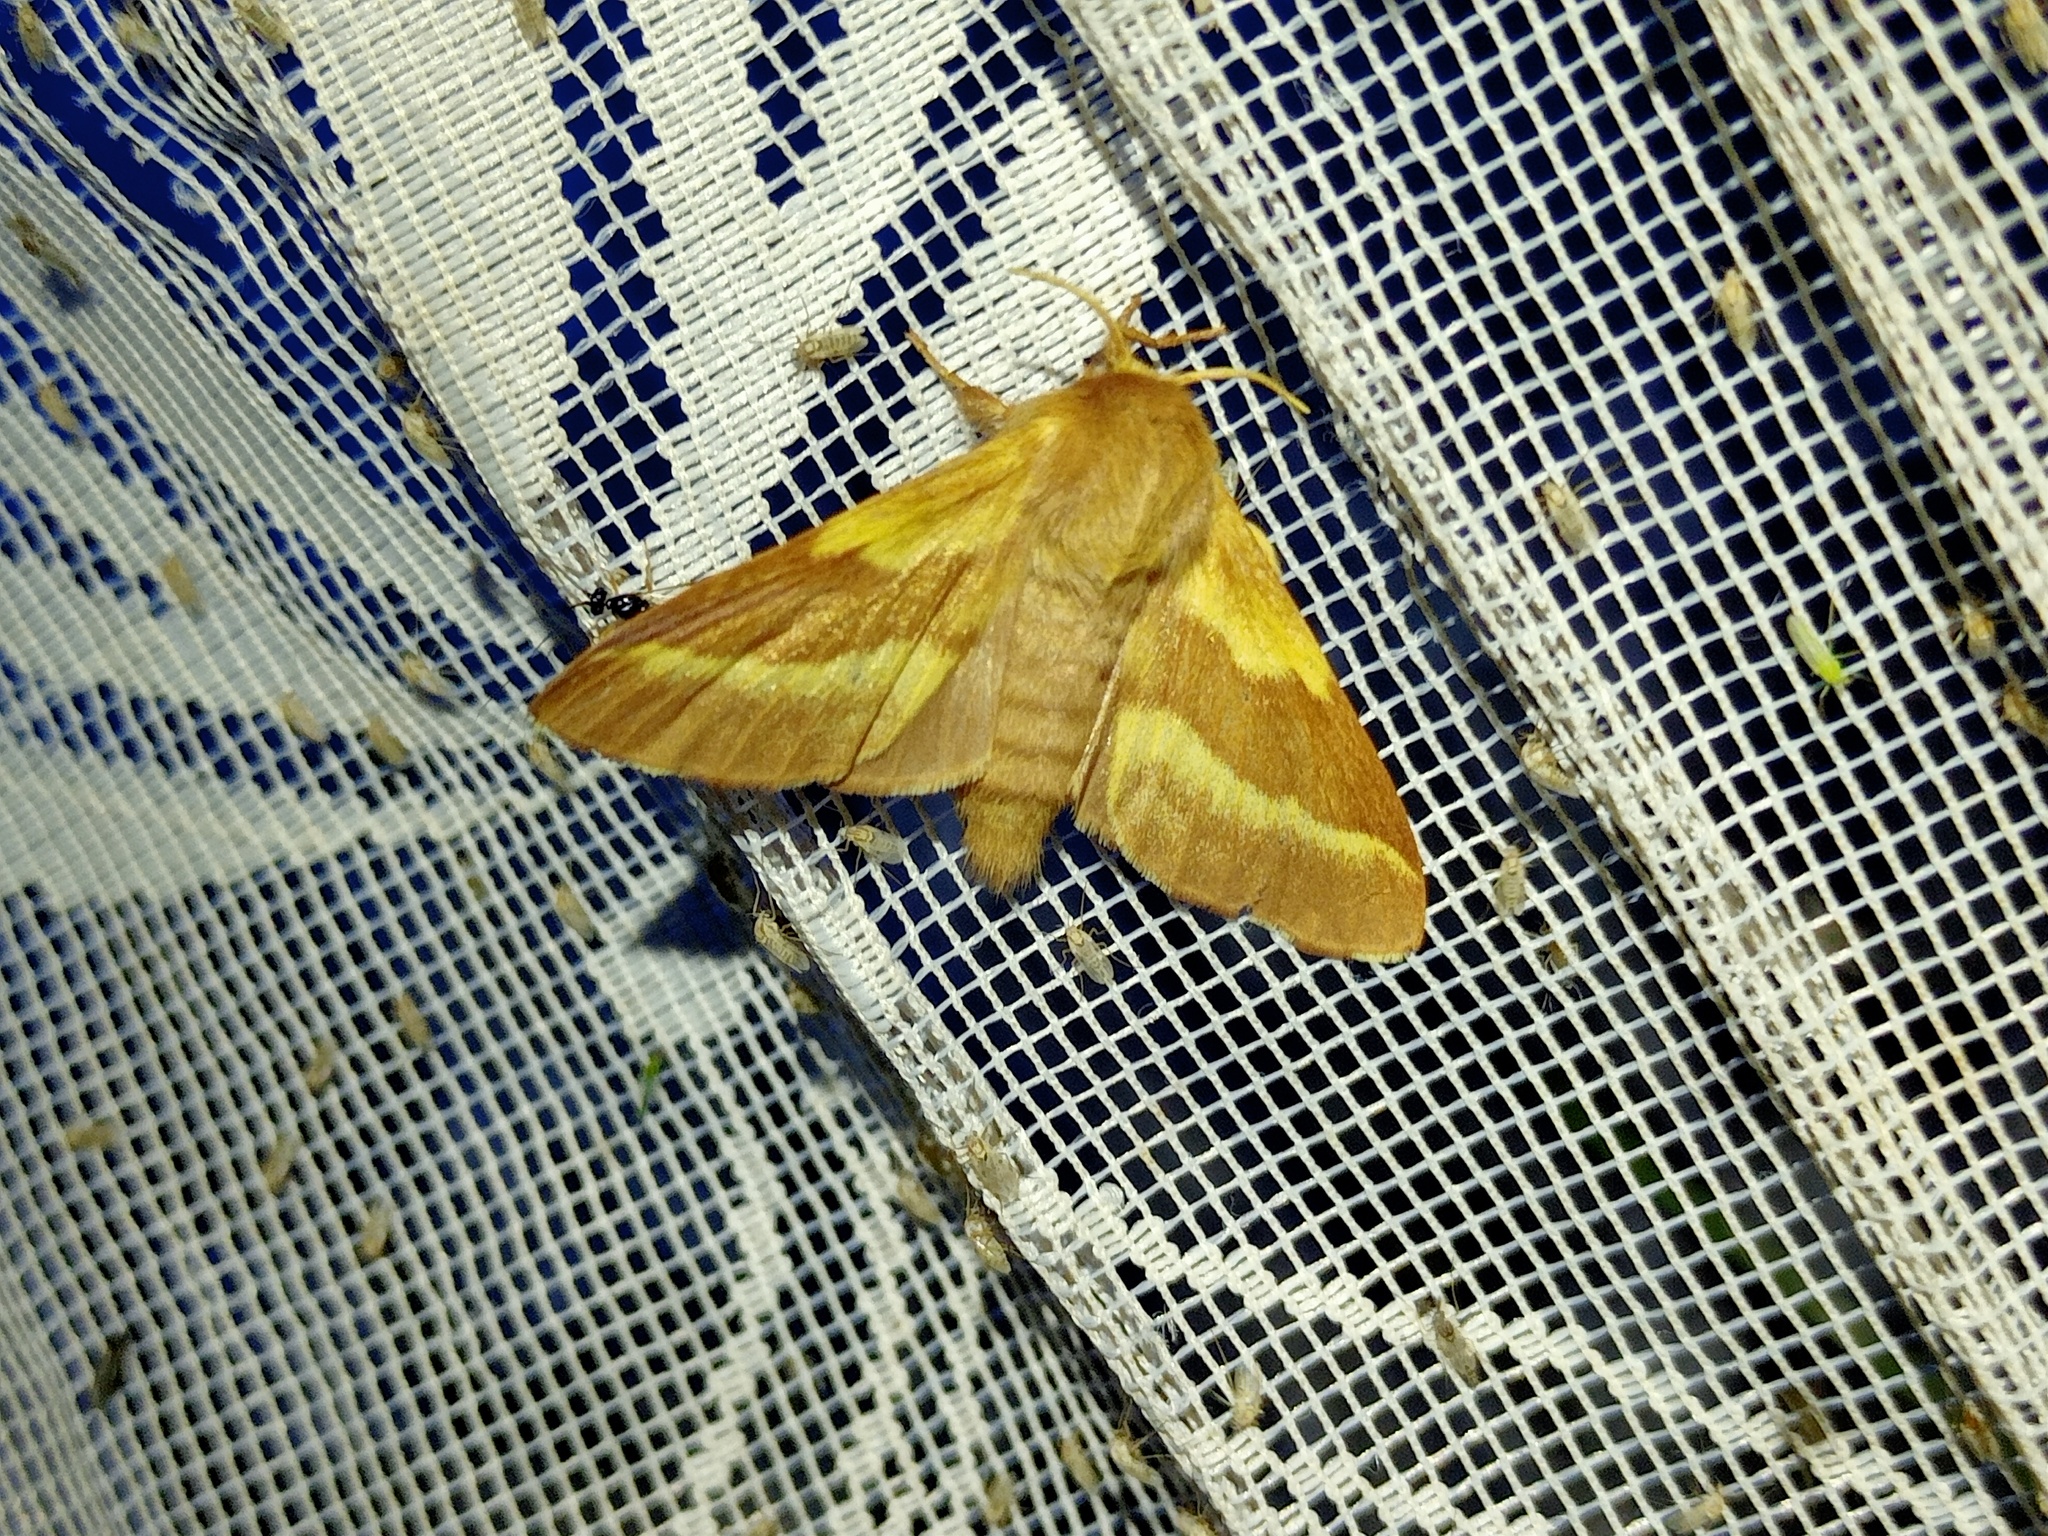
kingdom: Animalia
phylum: Arthropoda
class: Insecta
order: Lepidoptera
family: Lasiocampidae
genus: Malacosoma
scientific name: Malacosoma castrense
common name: Ground lackey
